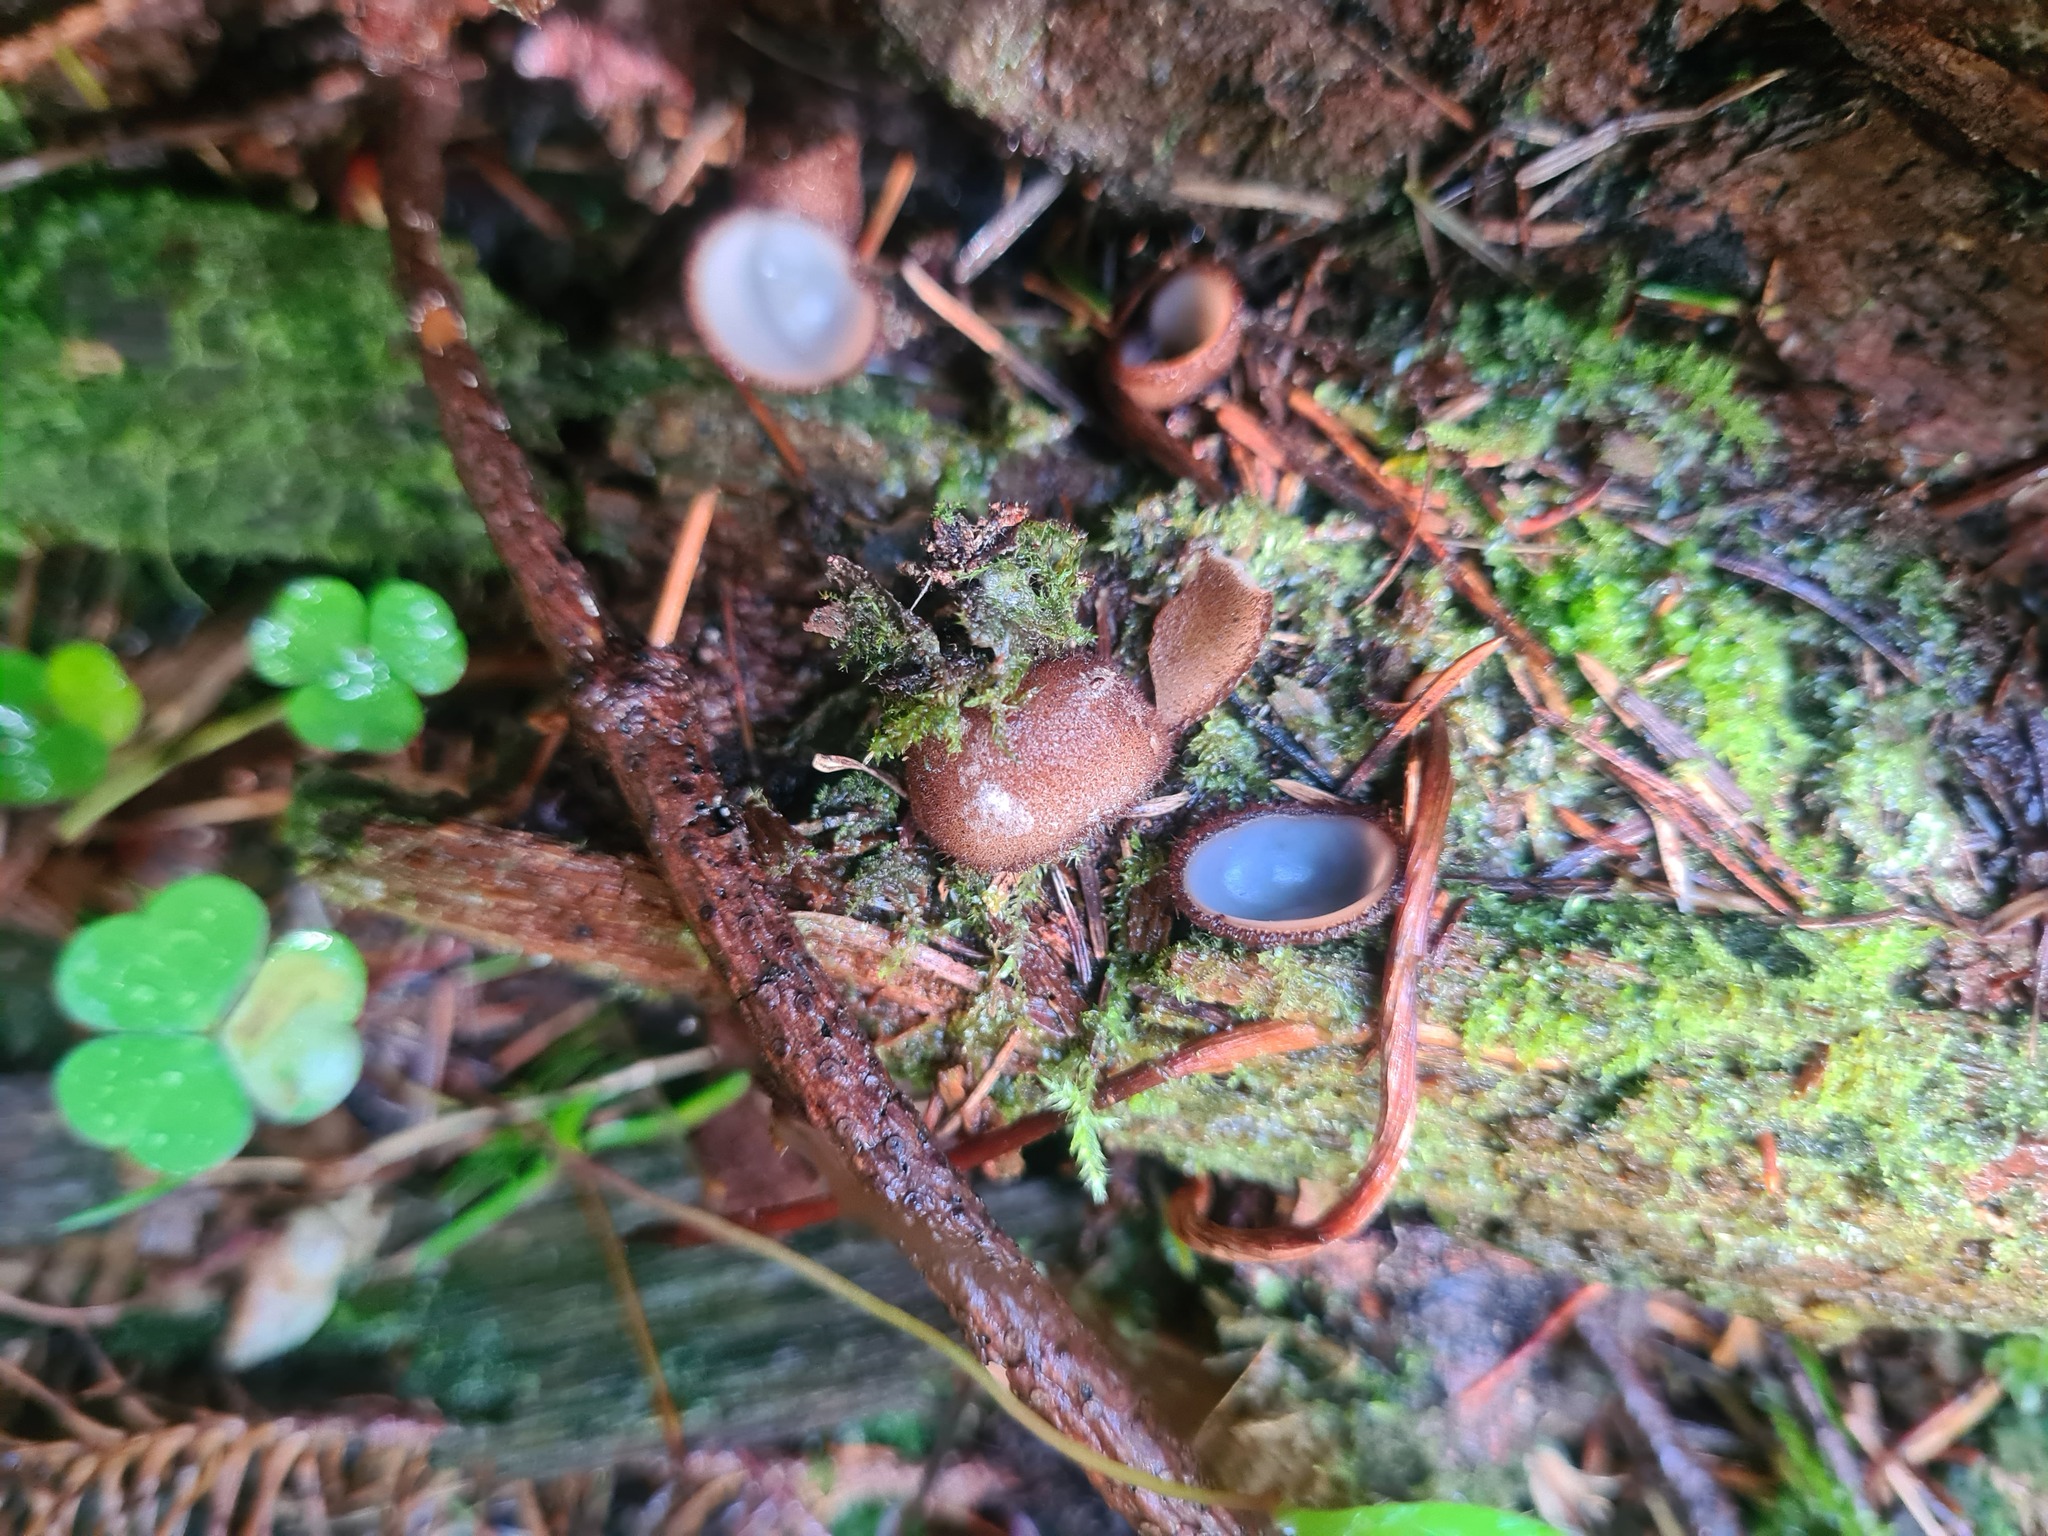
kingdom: Fungi
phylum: Ascomycota
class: Pezizomycetes
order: Pezizales
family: Pyronemataceae
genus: Humaria
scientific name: Humaria hemisphaerica
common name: Glazed cup
